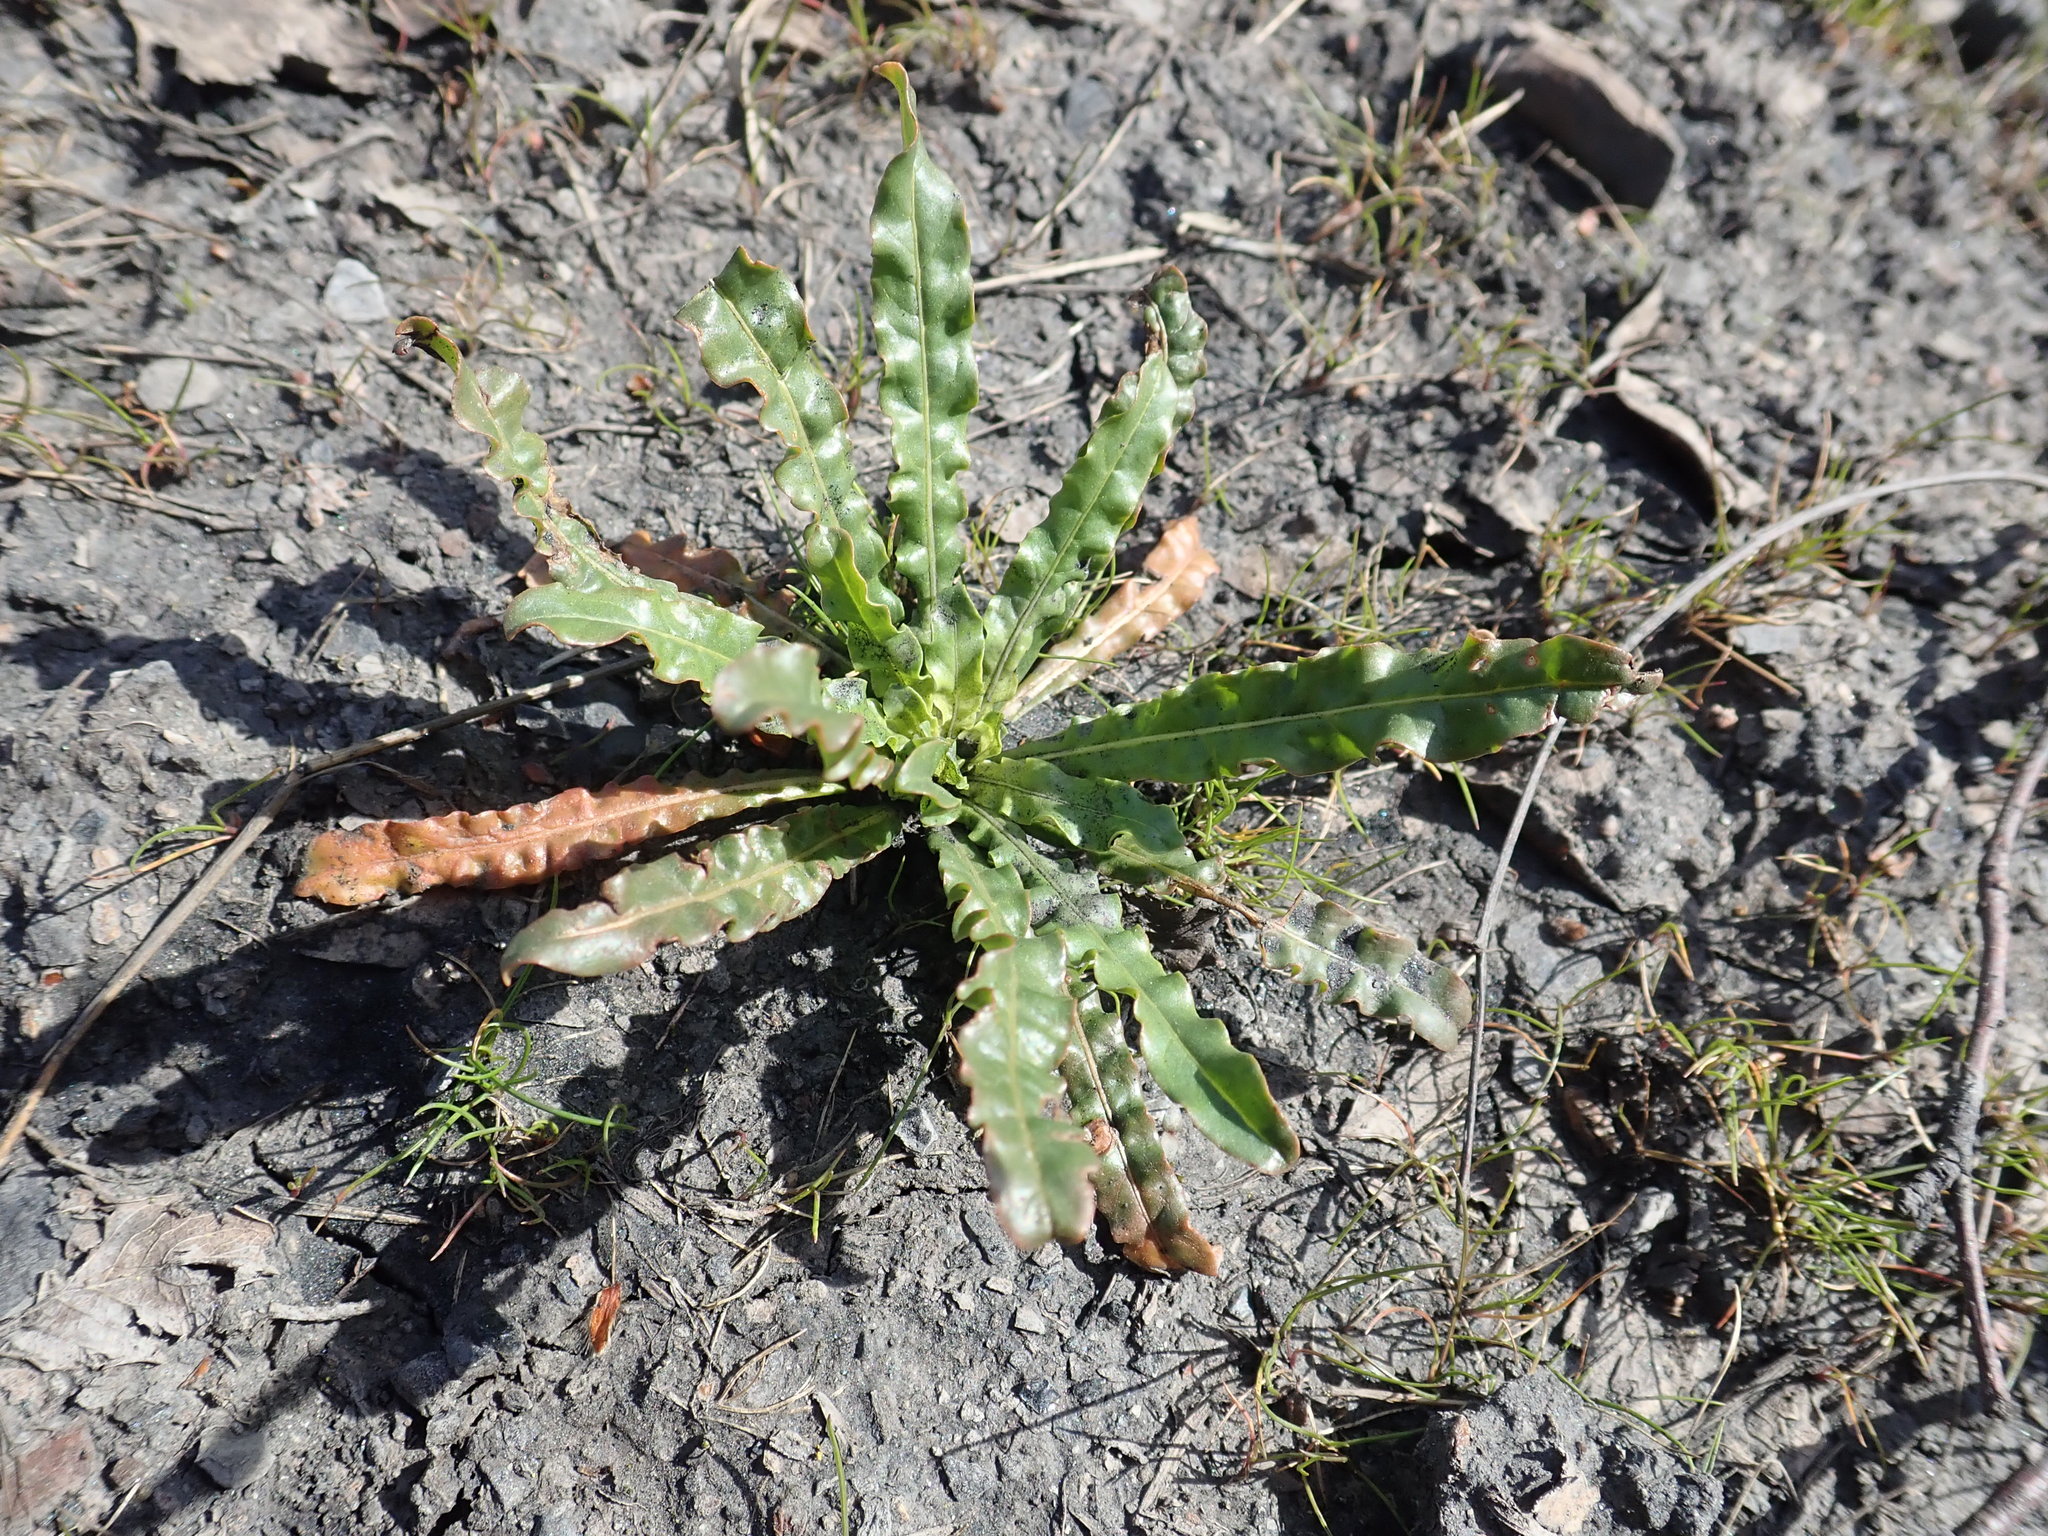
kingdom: Plantae
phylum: Tracheophyta
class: Magnoliopsida
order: Brassicales
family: Resedaceae
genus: Reseda
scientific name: Reseda luteola
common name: Weld
